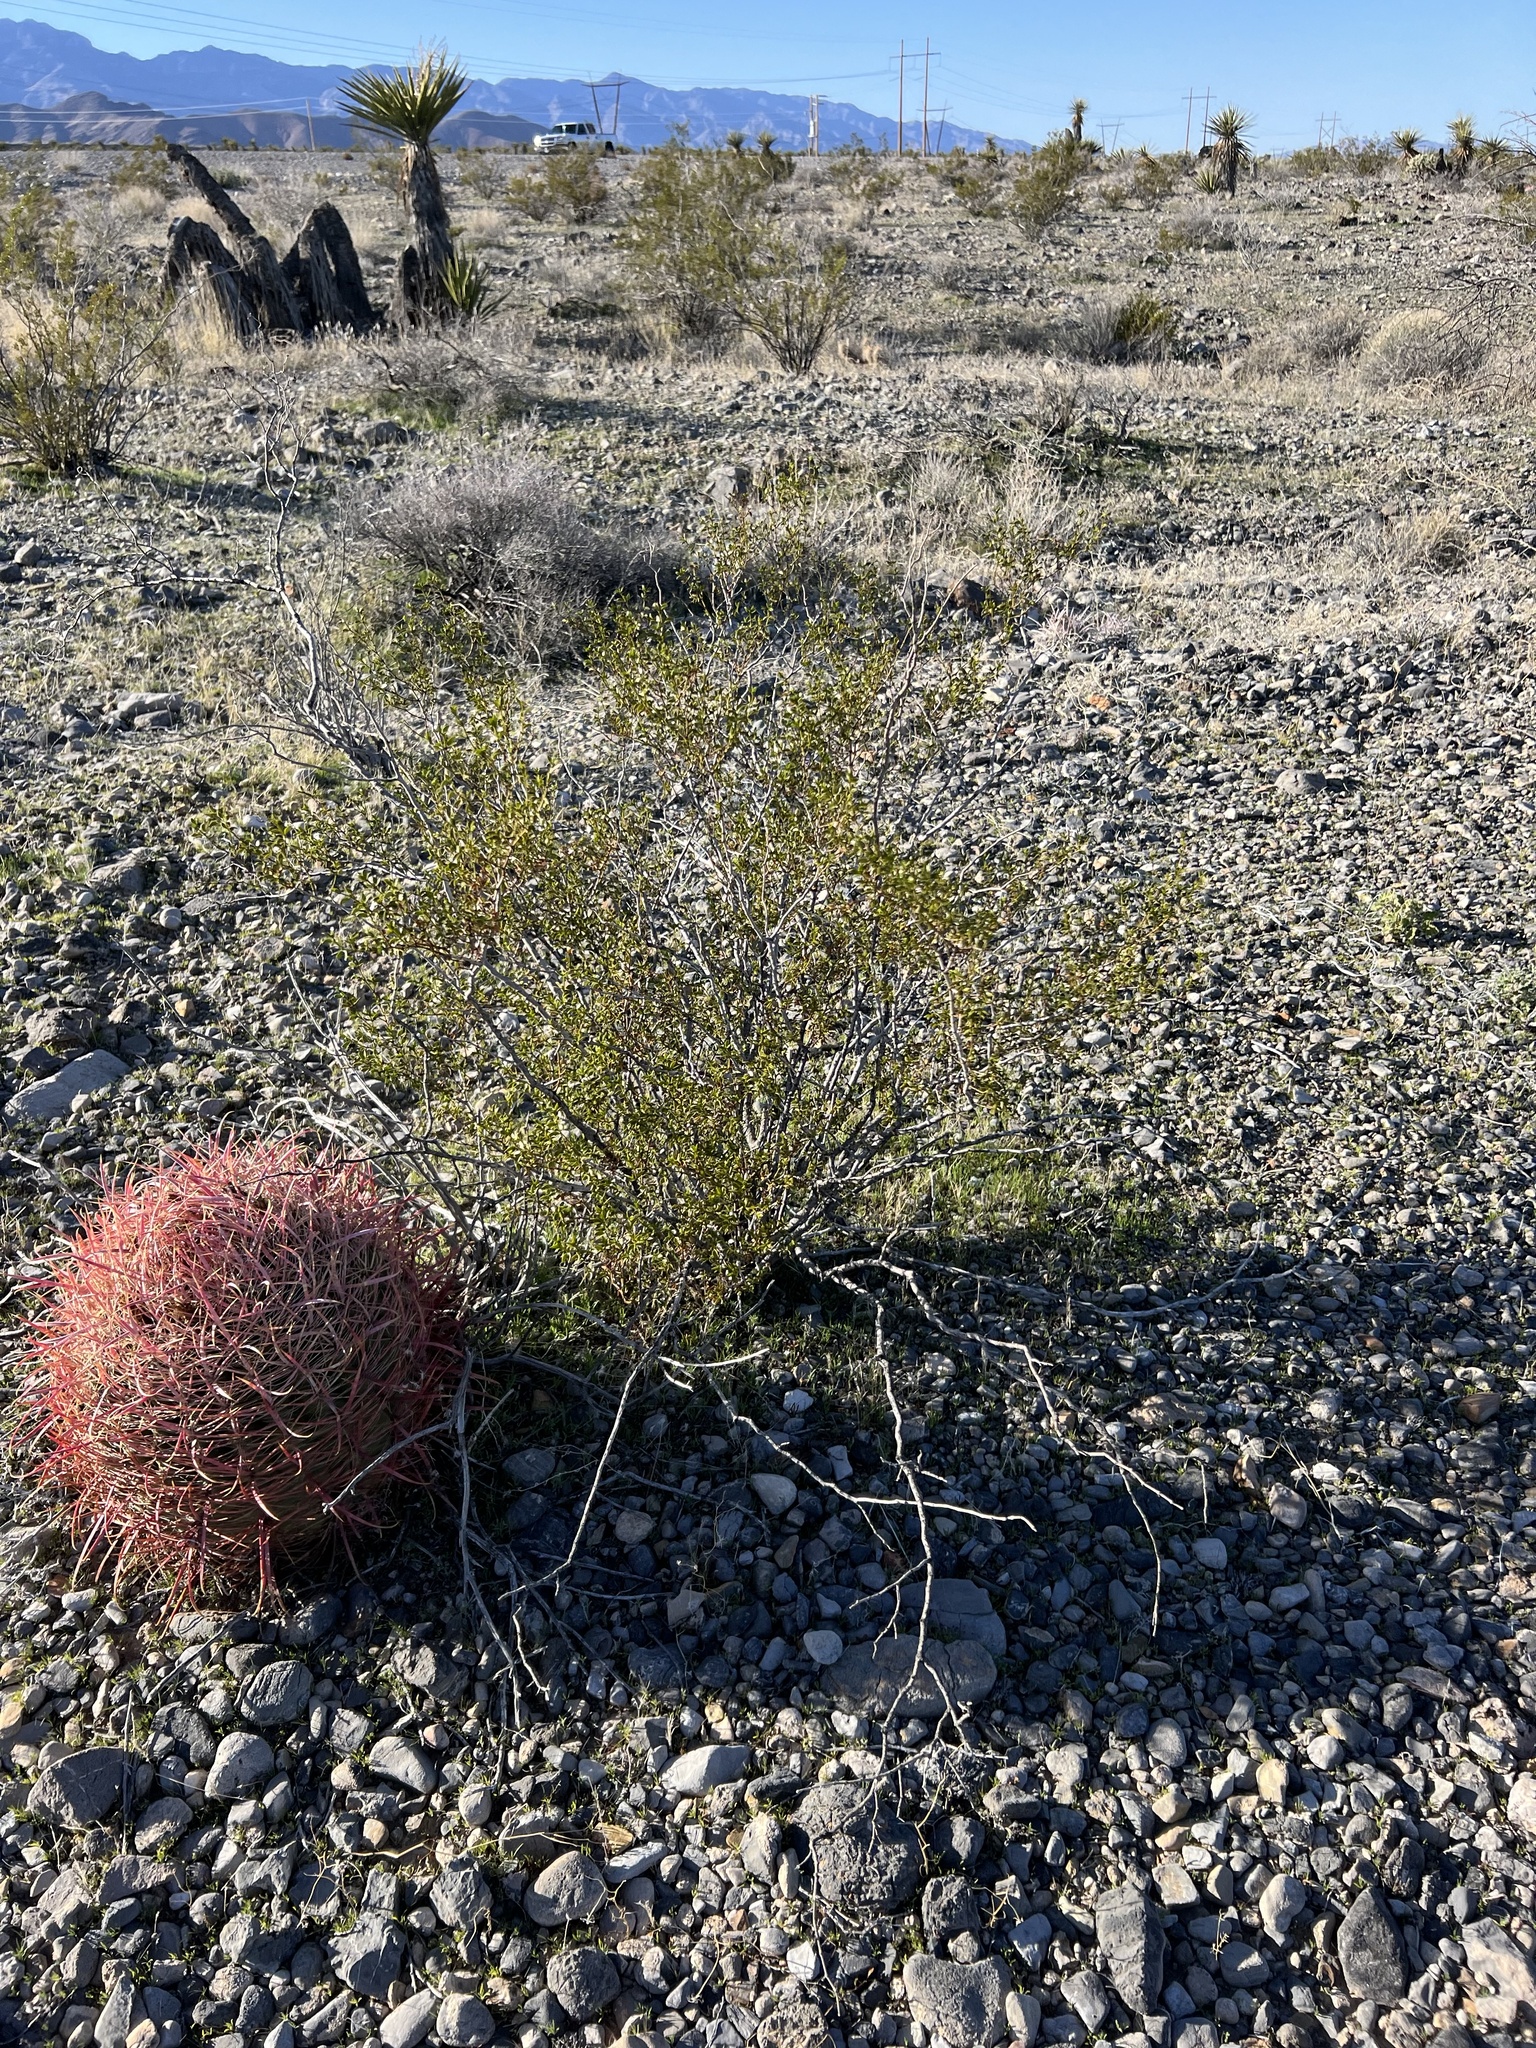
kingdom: Plantae
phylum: Tracheophyta
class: Magnoliopsida
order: Zygophyllales
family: Zygophyllaceae
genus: Larrea
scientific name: Larrea tridentata
